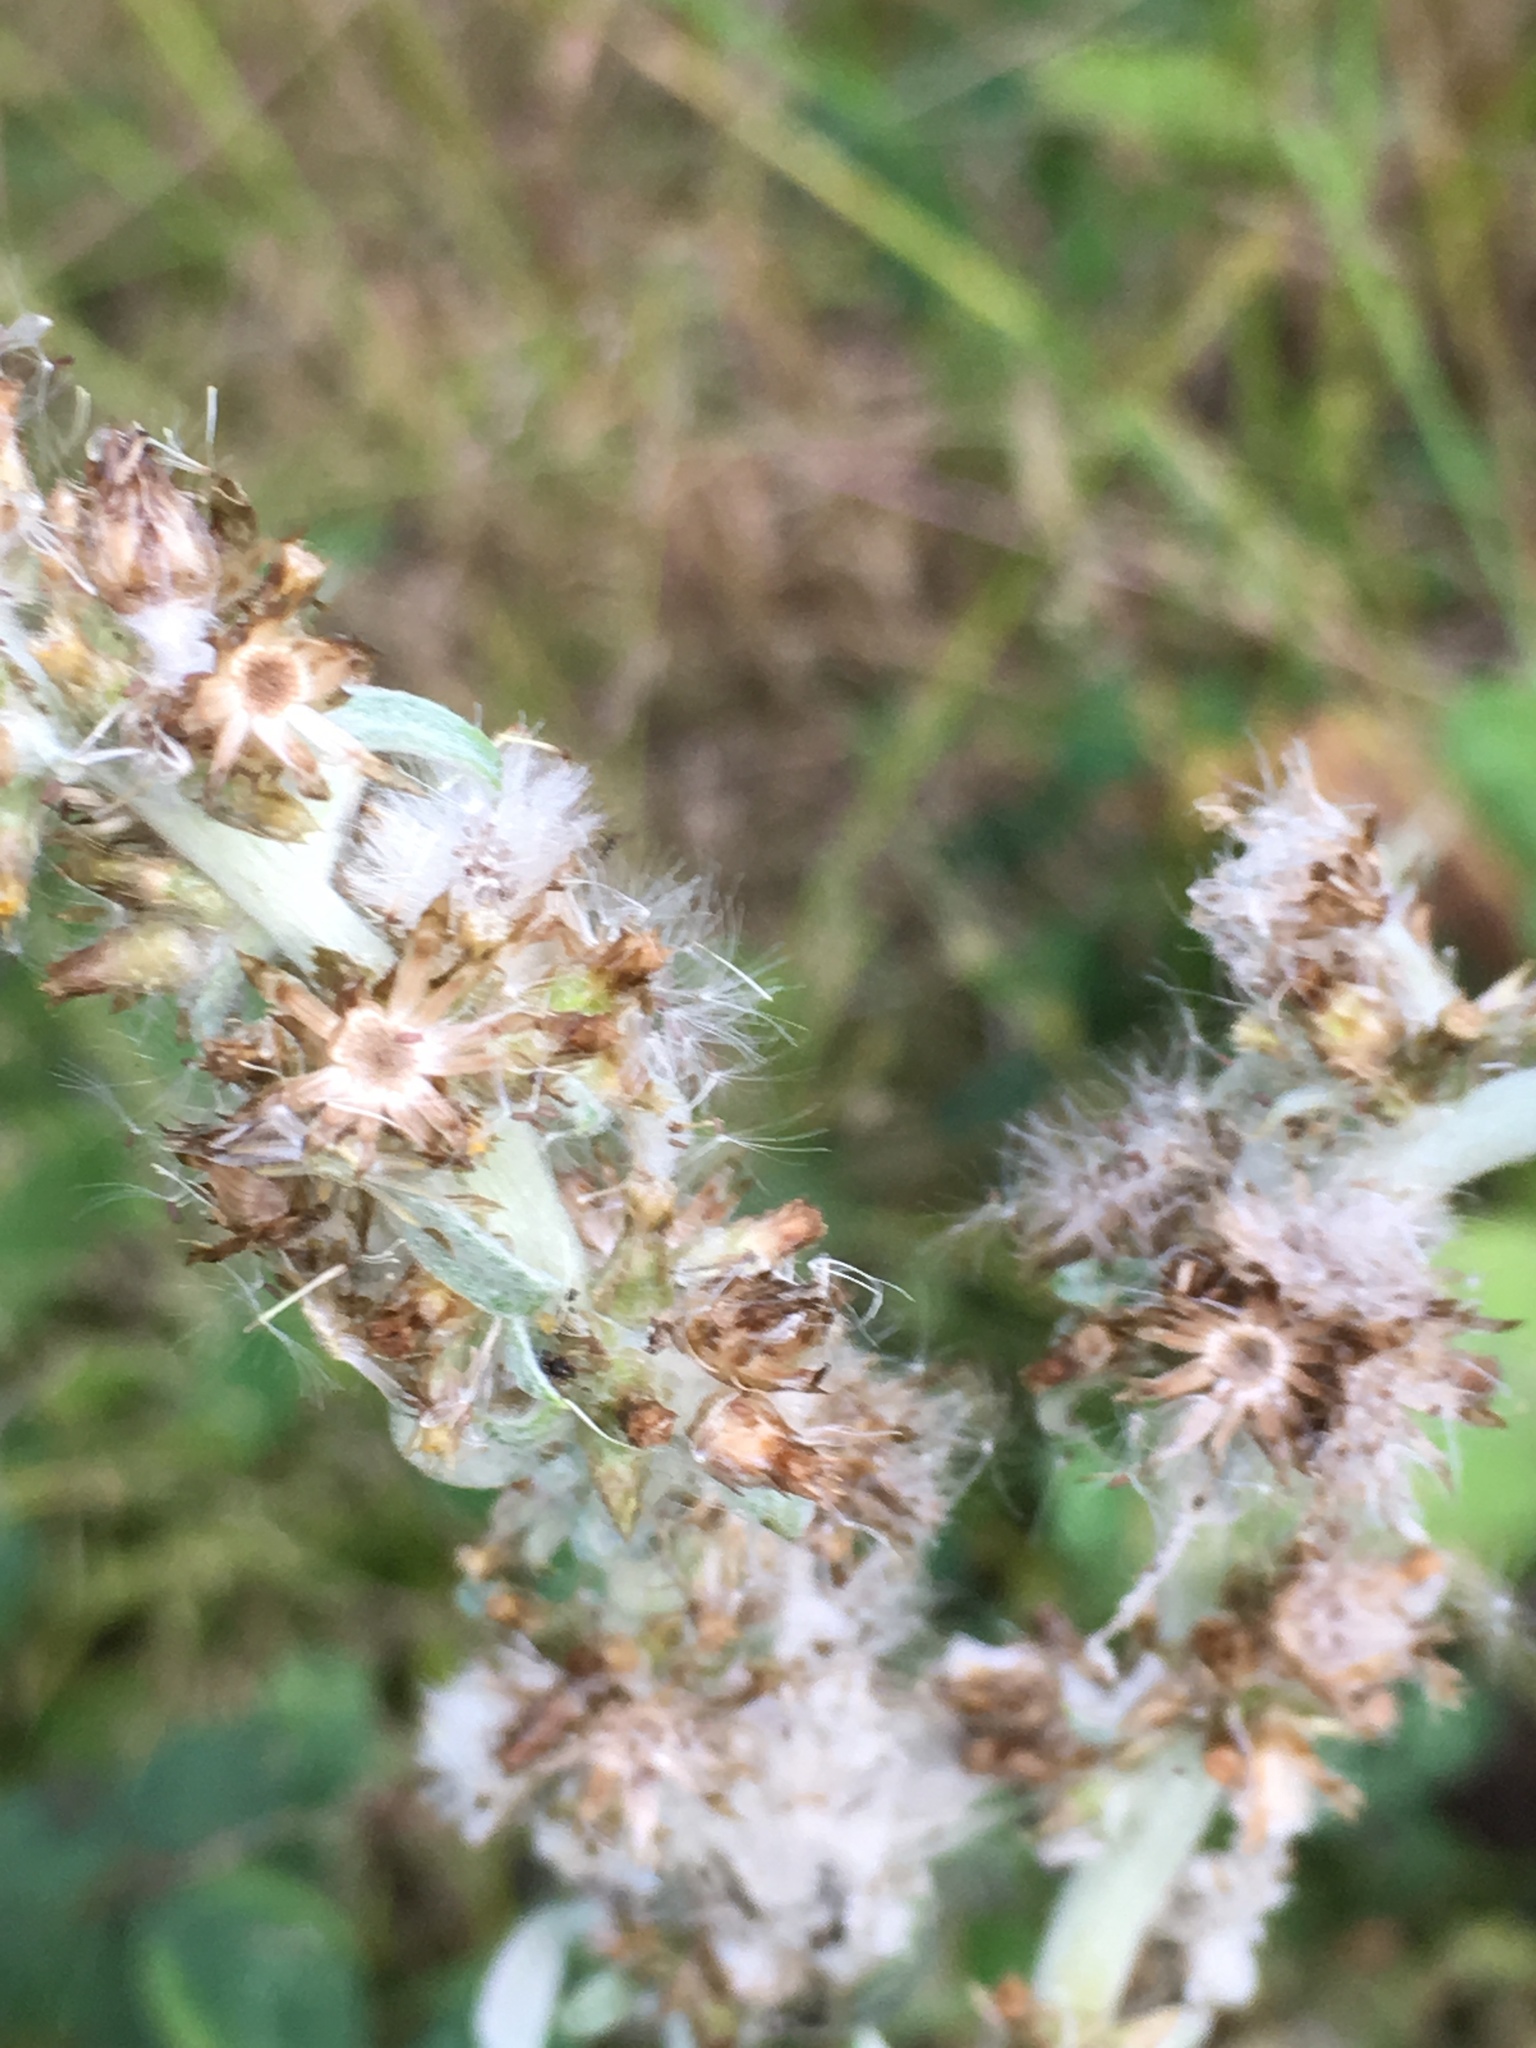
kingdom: Plantae
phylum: Tracheophyta
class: Magnoliopsida
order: Asterales
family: Asteraceae
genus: Gamochaeta
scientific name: Gamochaeta ustulata
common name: Pacific cudweed
